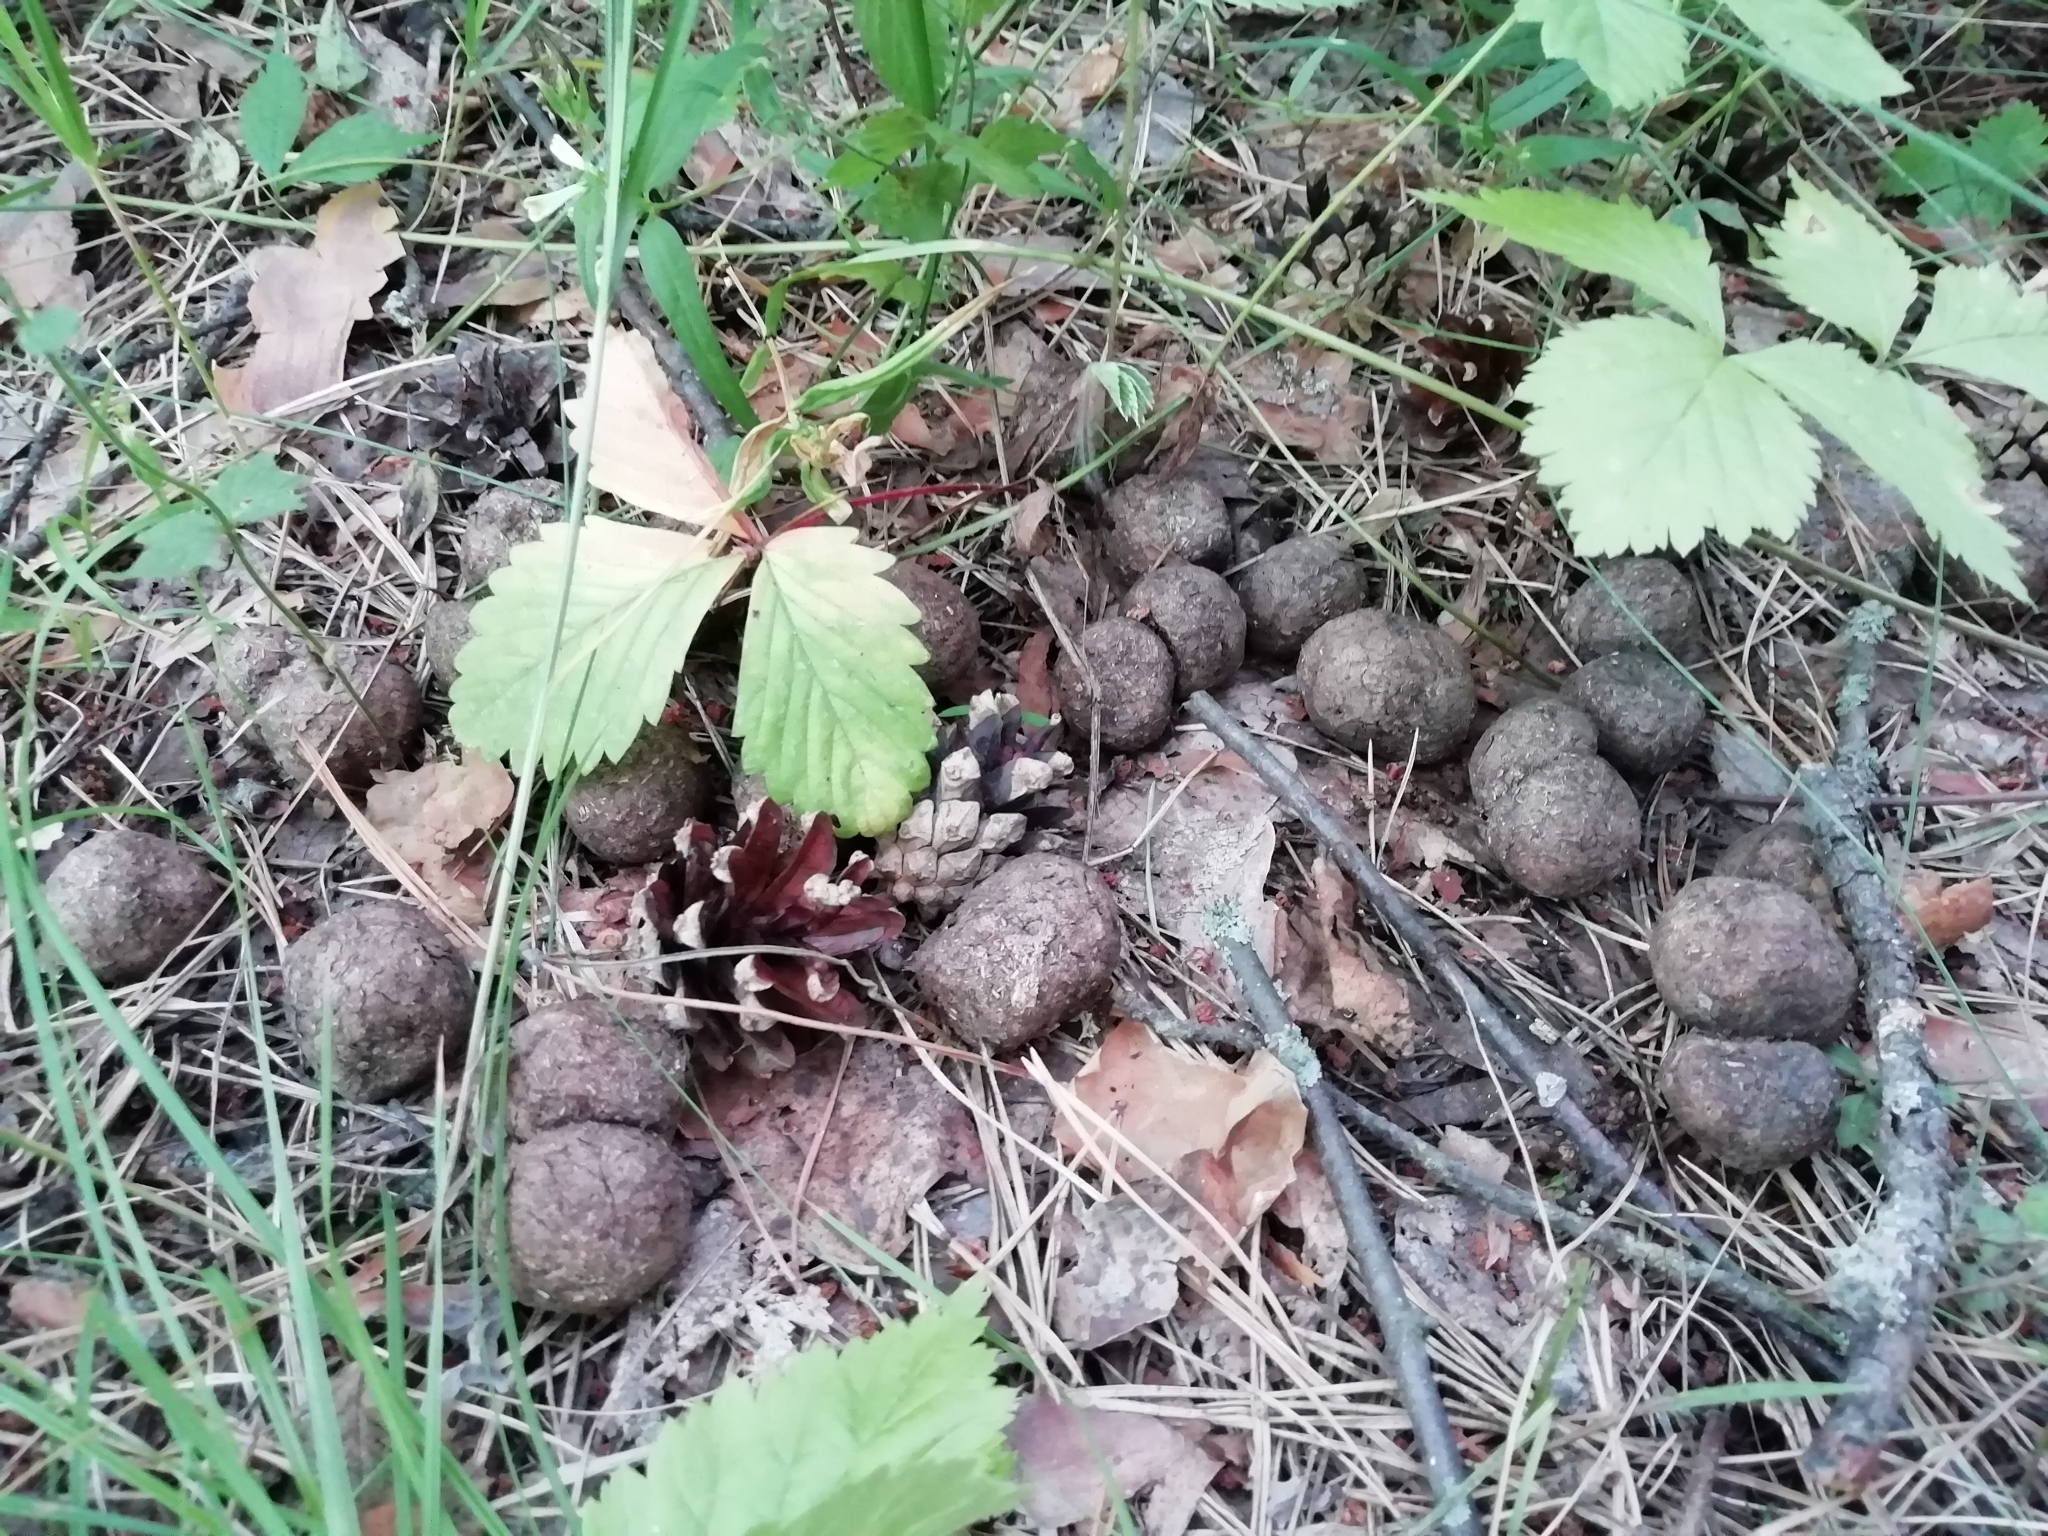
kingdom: Animalia
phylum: Chordata
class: Mammalia
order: Artiodactyla
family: Cervidae
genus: Alces
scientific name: Alces alces
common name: Moose
